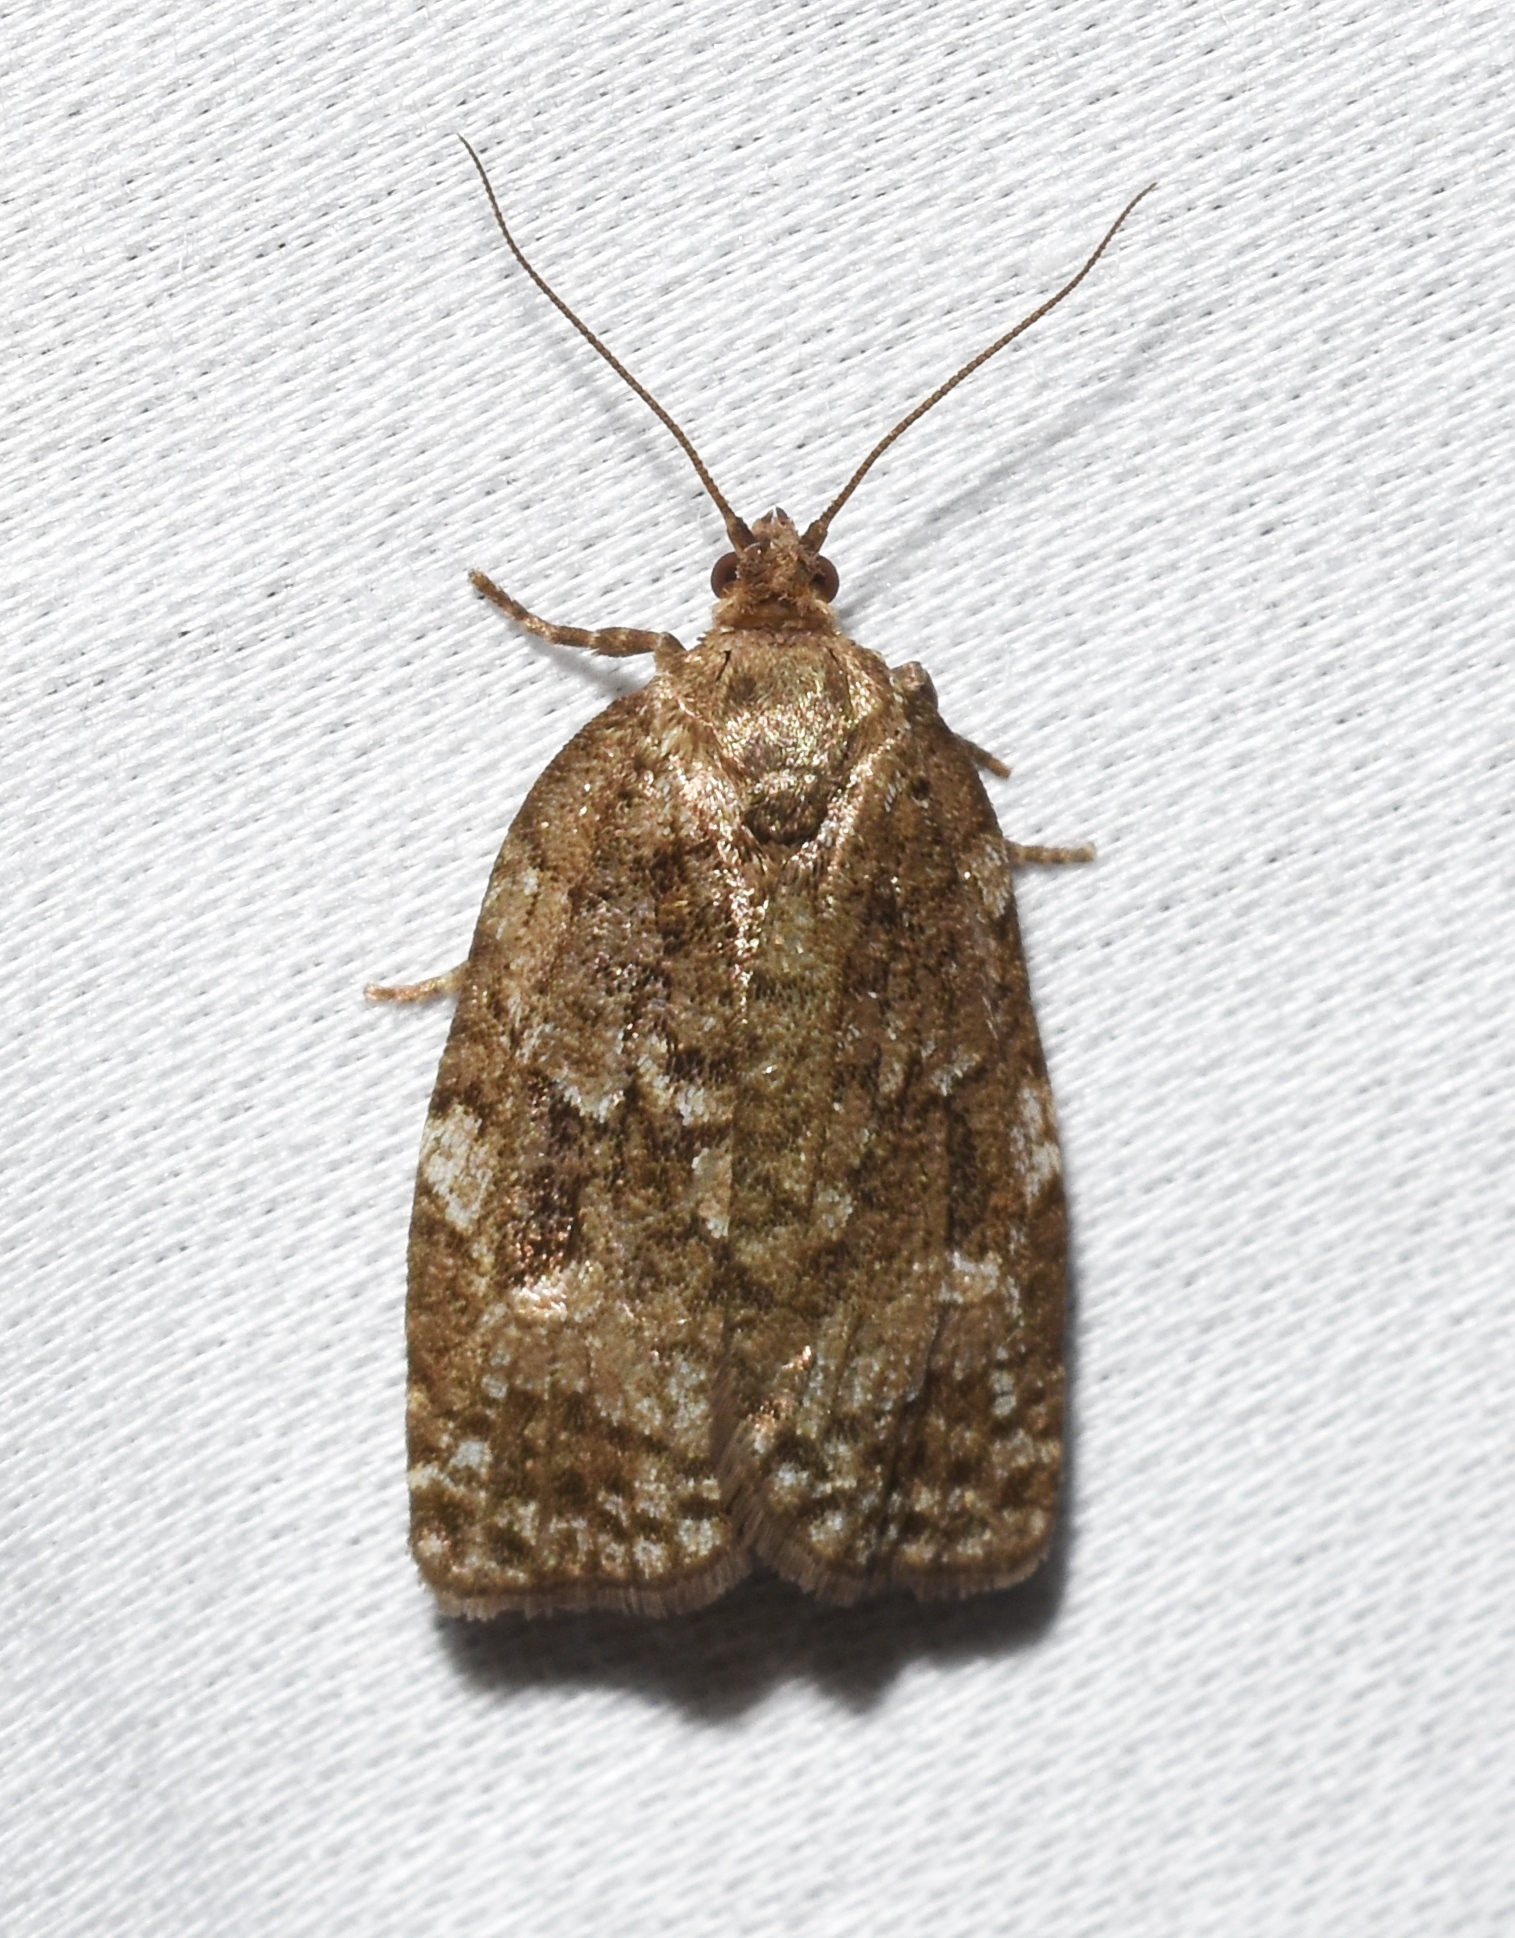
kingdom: Animalia
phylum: Arthropoda
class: Insecta
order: Lepidoptera
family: Tortricidae
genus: Choristoneura
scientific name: Choristoneura fumiferana
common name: Spruce budworm
